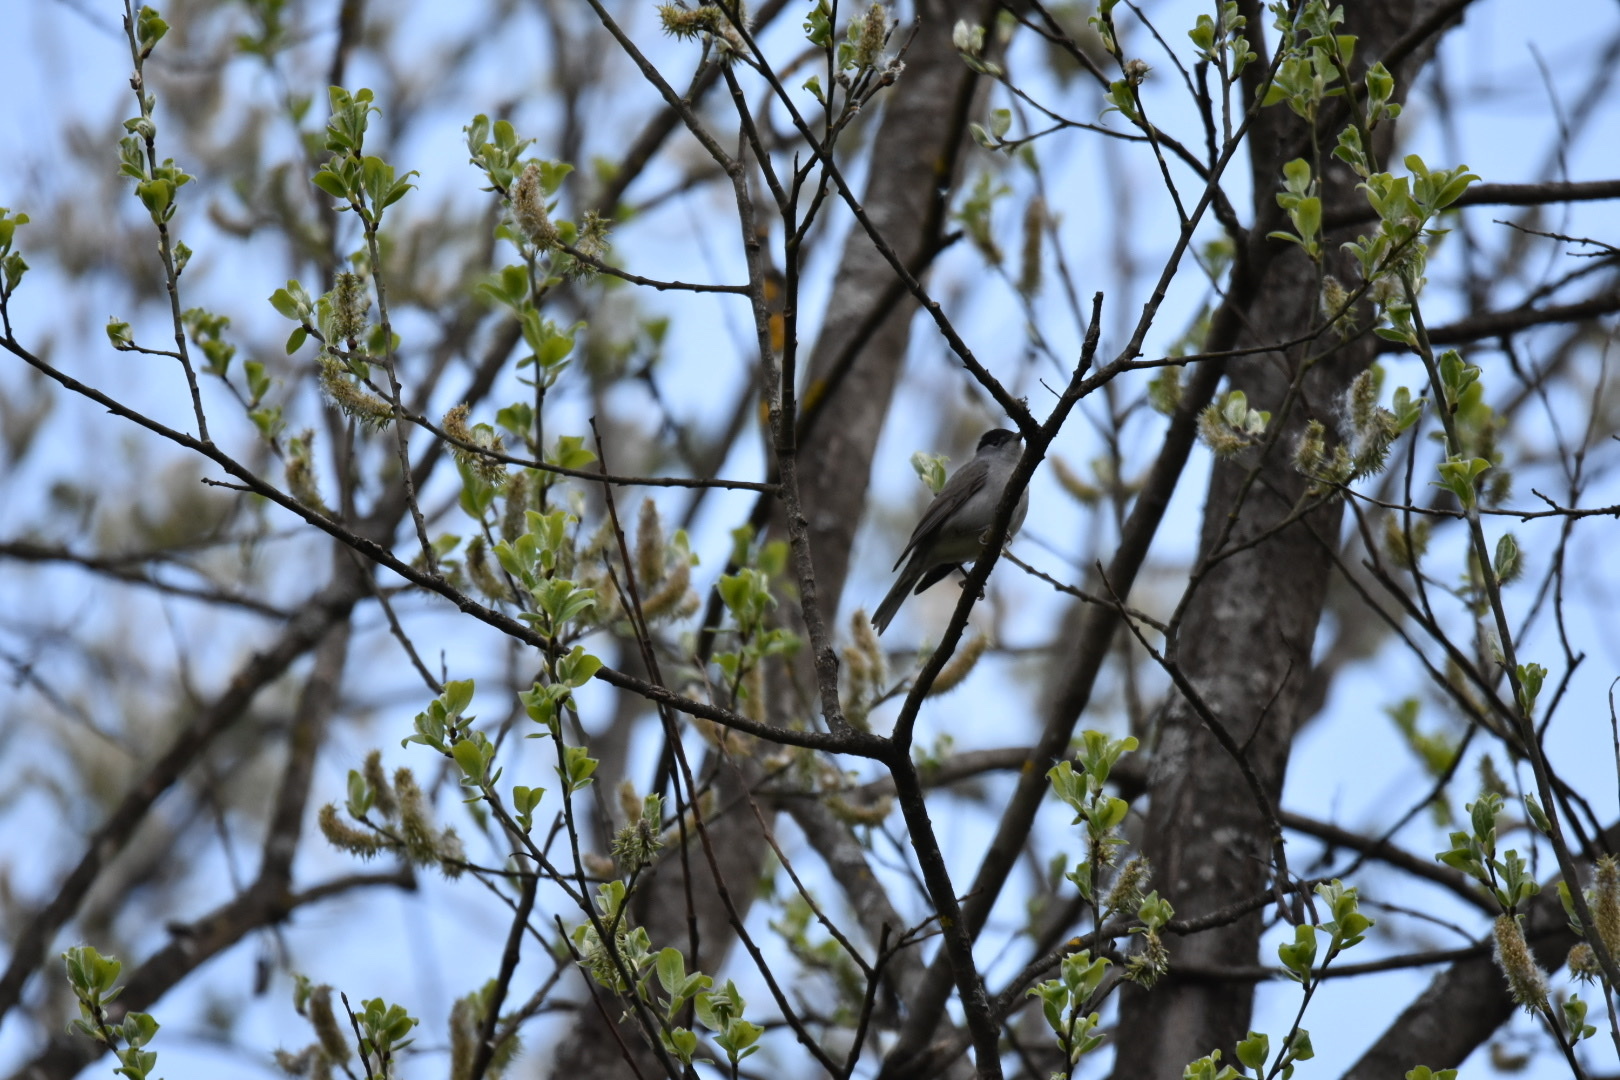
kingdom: Animalia
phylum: Chordata
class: Aves
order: Passeriformes
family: Sylviidae
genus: Sylvia
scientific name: Sylvia atricapilla
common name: Eurasian blackcap
